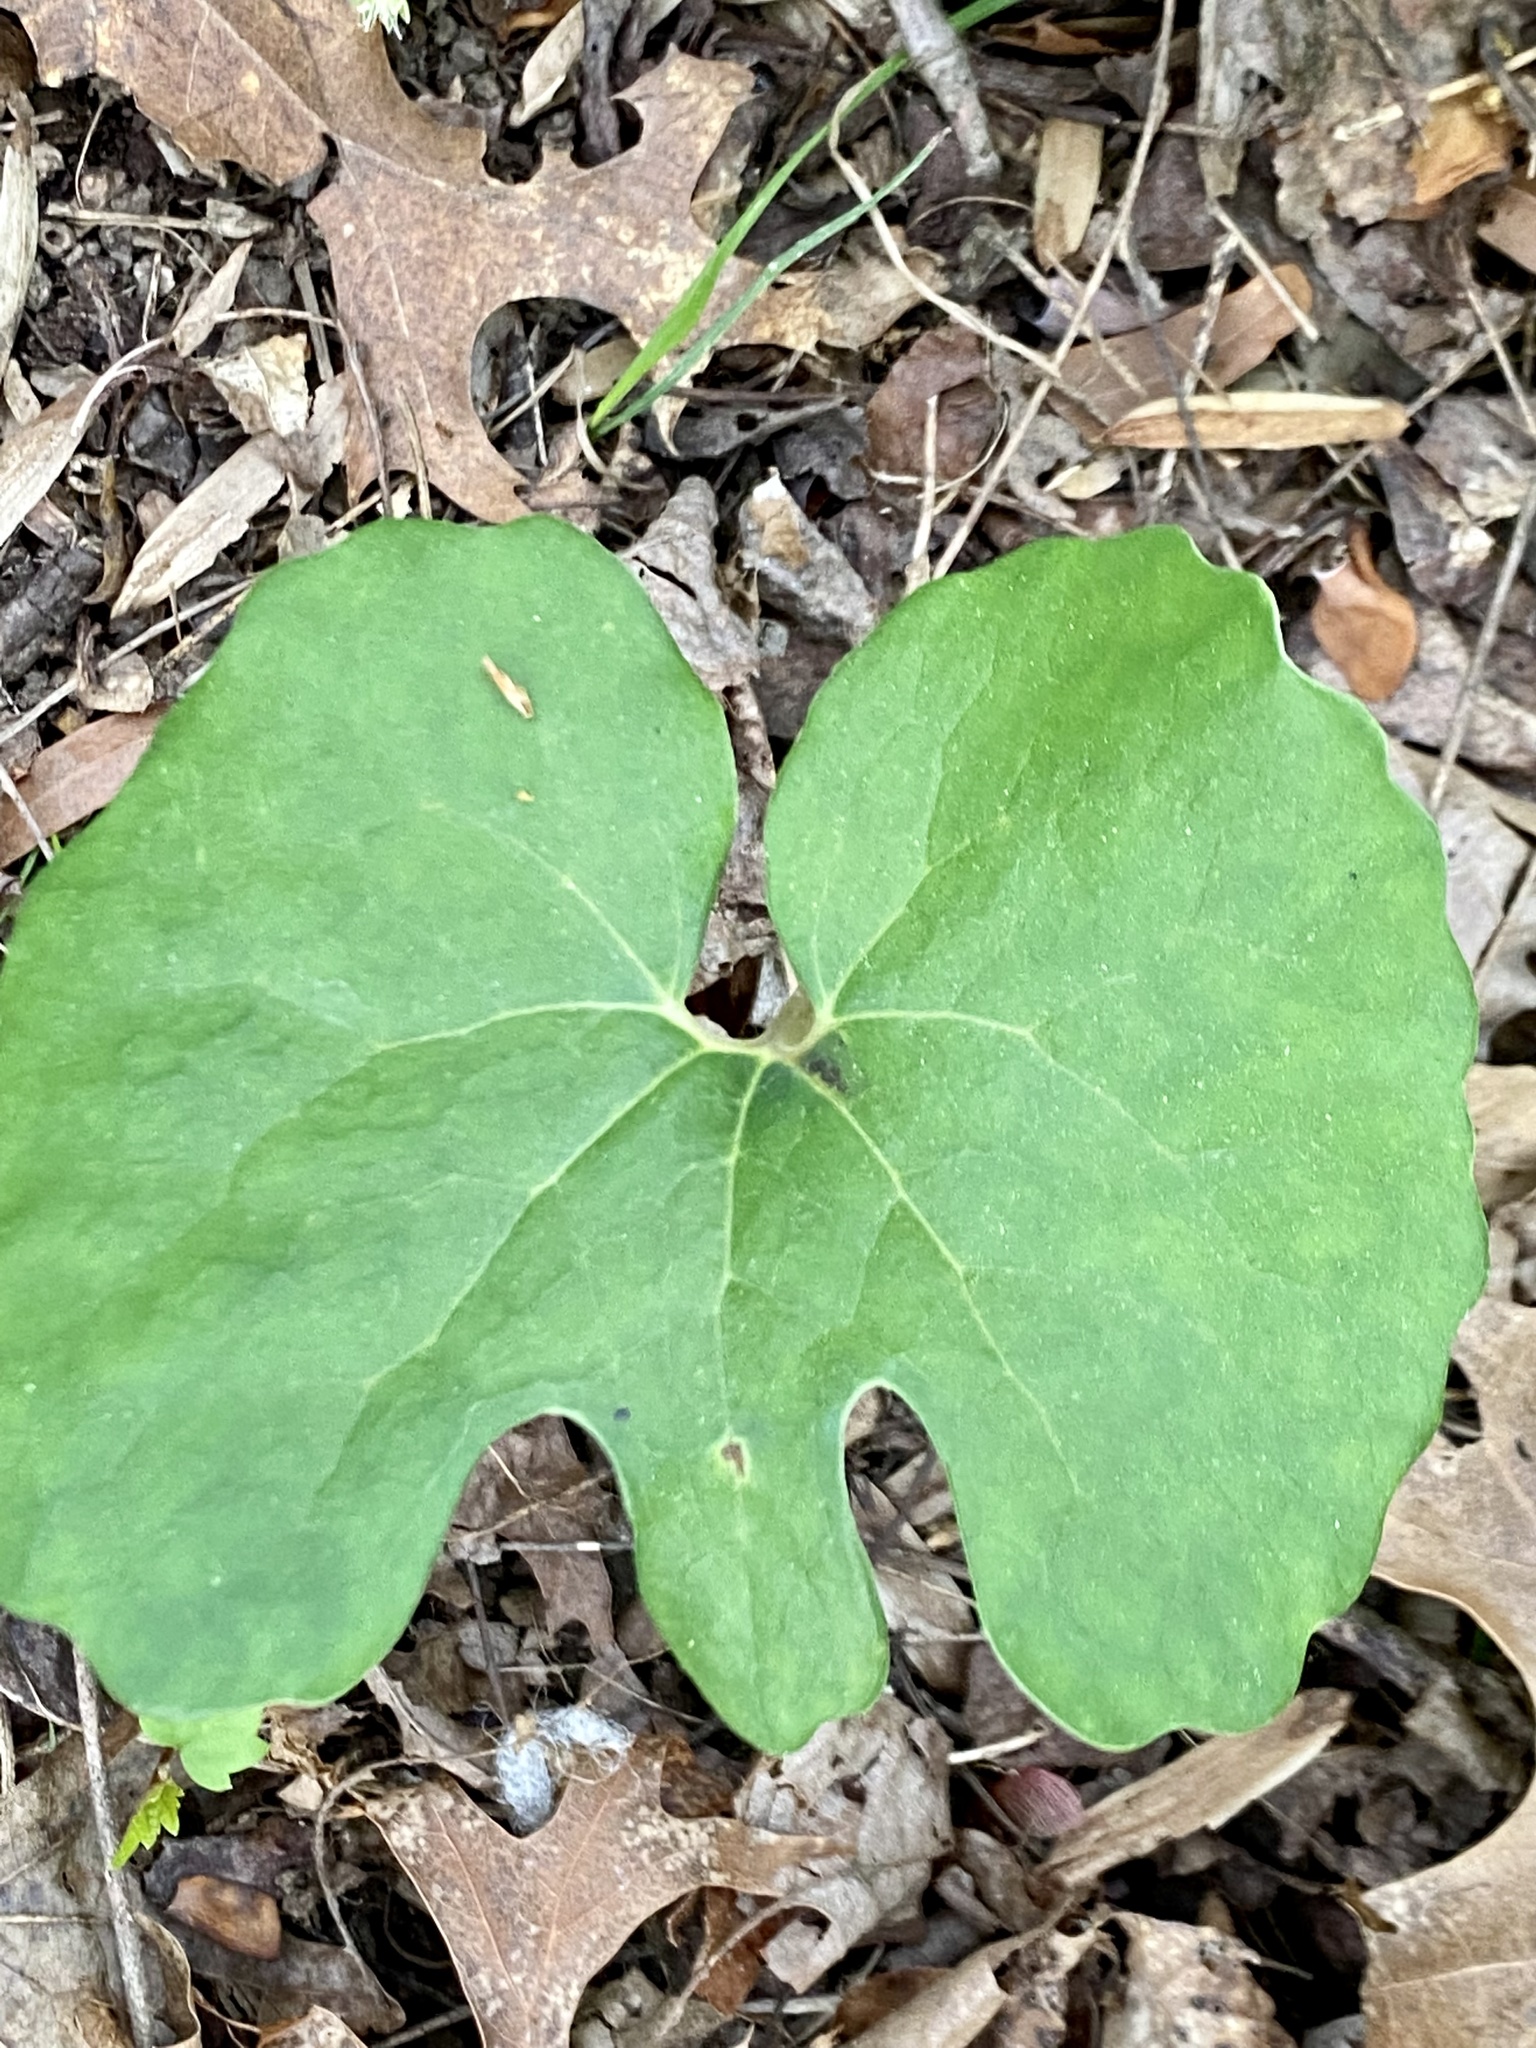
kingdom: Plantae
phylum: Tracheophyta
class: Magnoliopsida
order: Ranunculales
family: Papaveraceae
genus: Sanguinaria
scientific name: Sanguinaria canadensis
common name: Bloodroot
